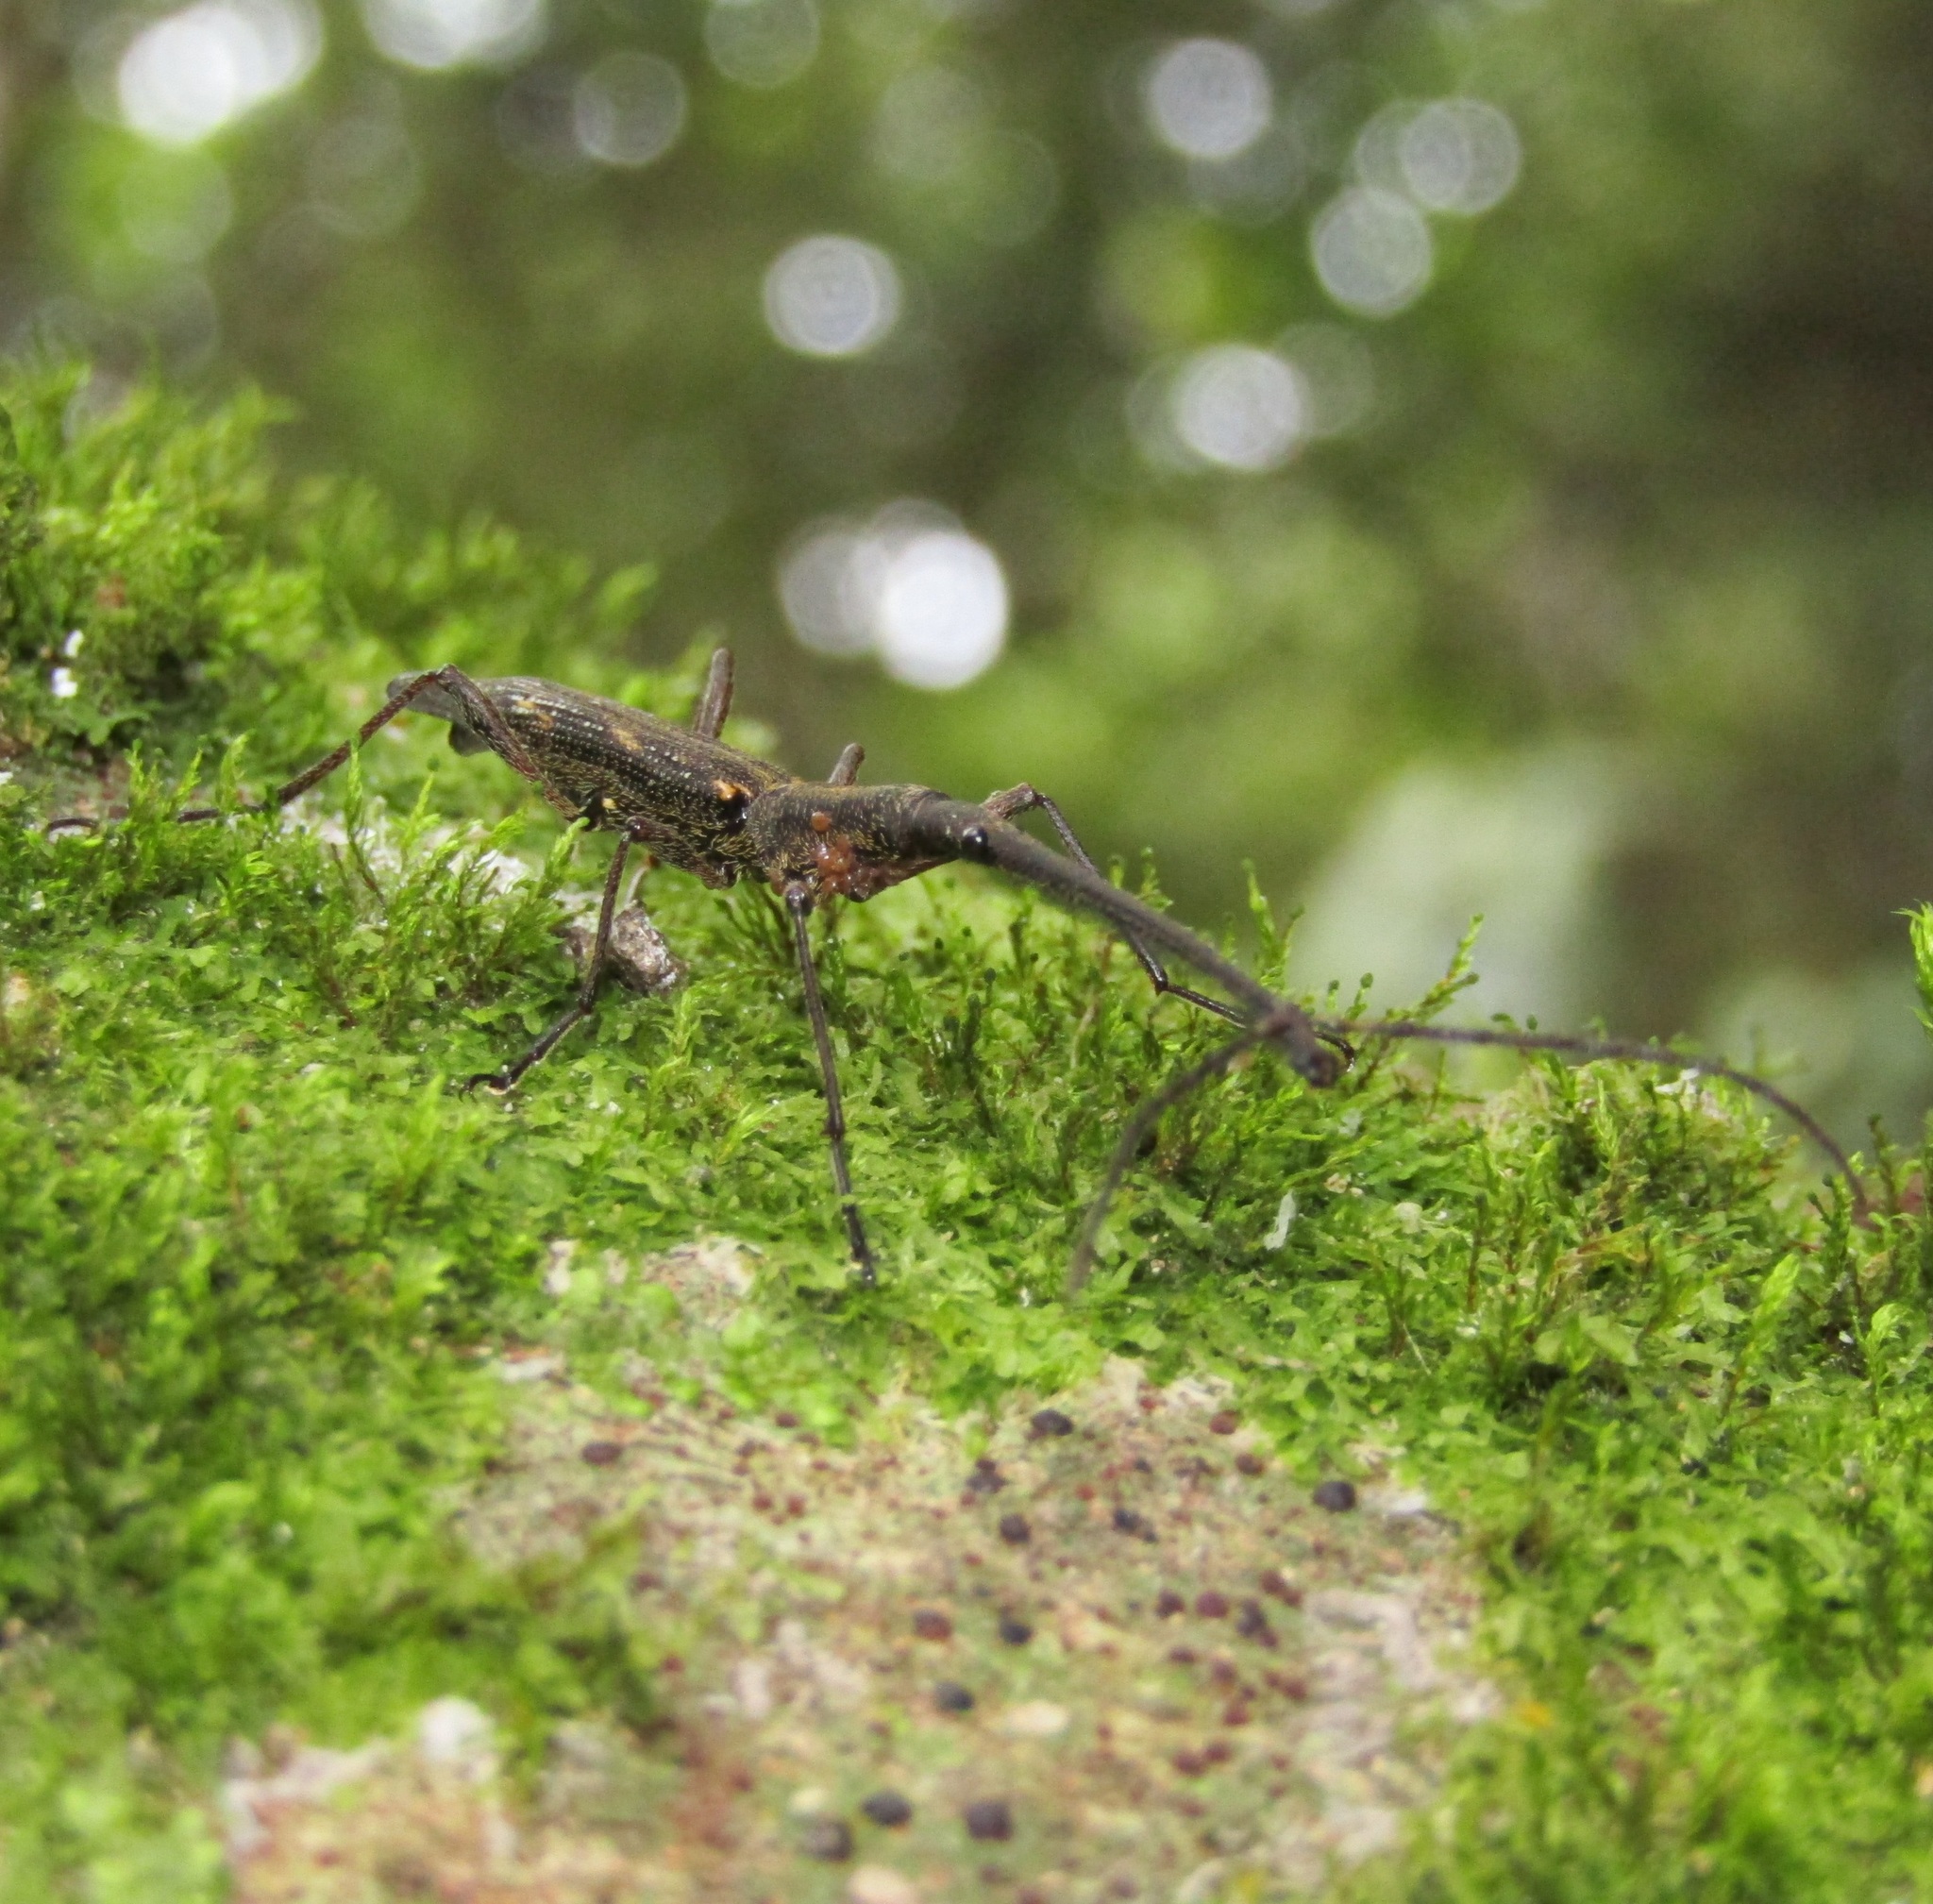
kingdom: Animalia
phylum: Arthropoda
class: Insecta
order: Coleoptera
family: Brentidae
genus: Lasiorhynchus
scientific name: Lasiorhynchus barbicornis
